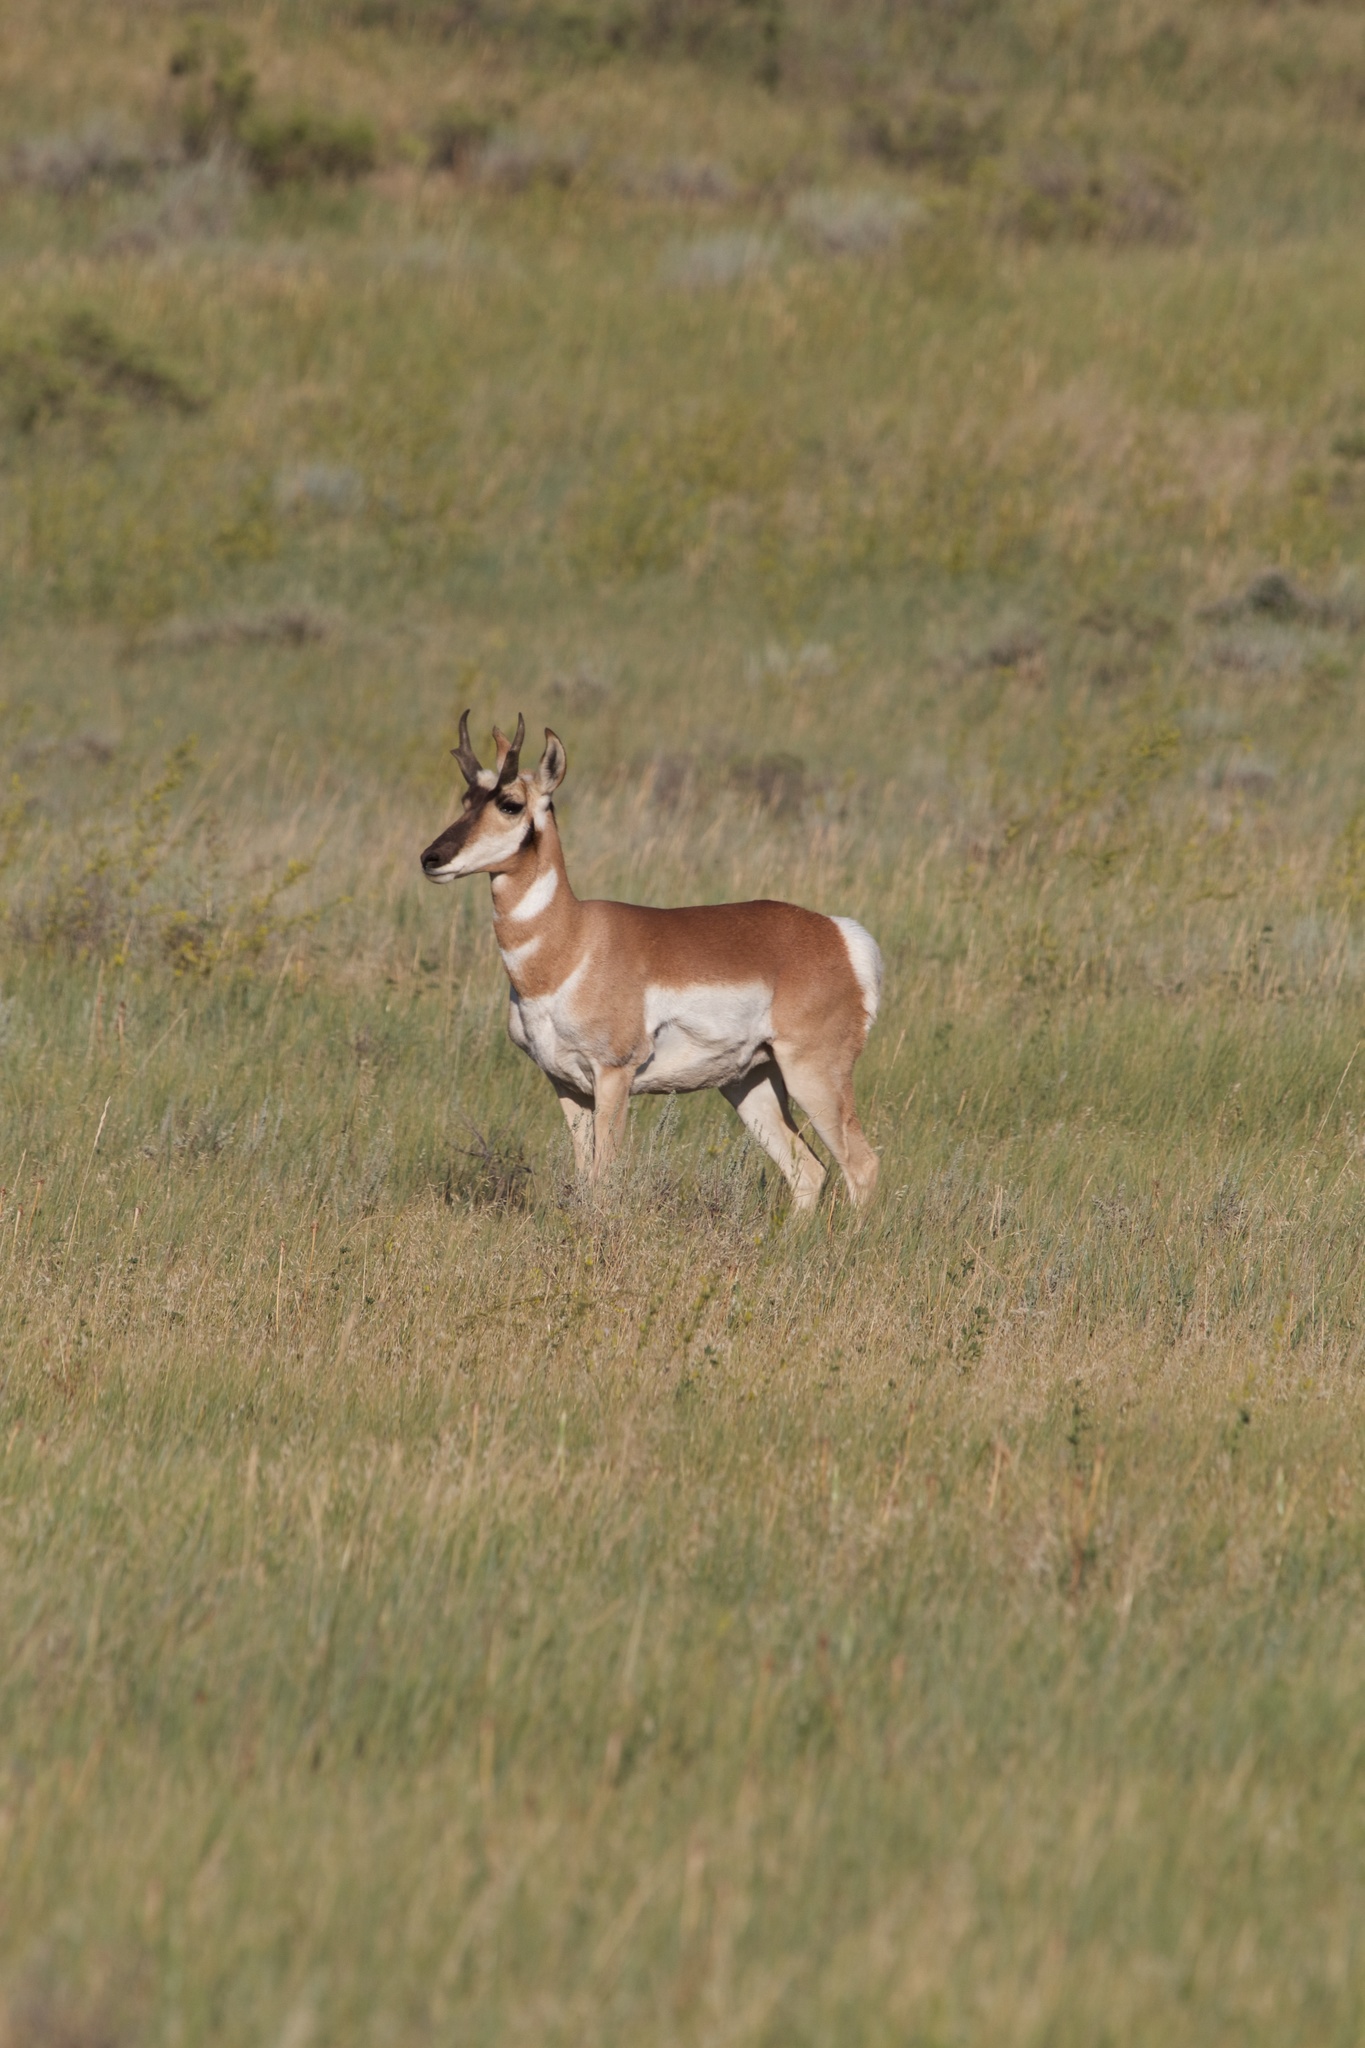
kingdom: Animalia
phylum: Chordata
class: Mammalia
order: Artiodactyla
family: Antilocapridae
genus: Antilocapra
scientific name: Antilocapra americana
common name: Pronghorn
